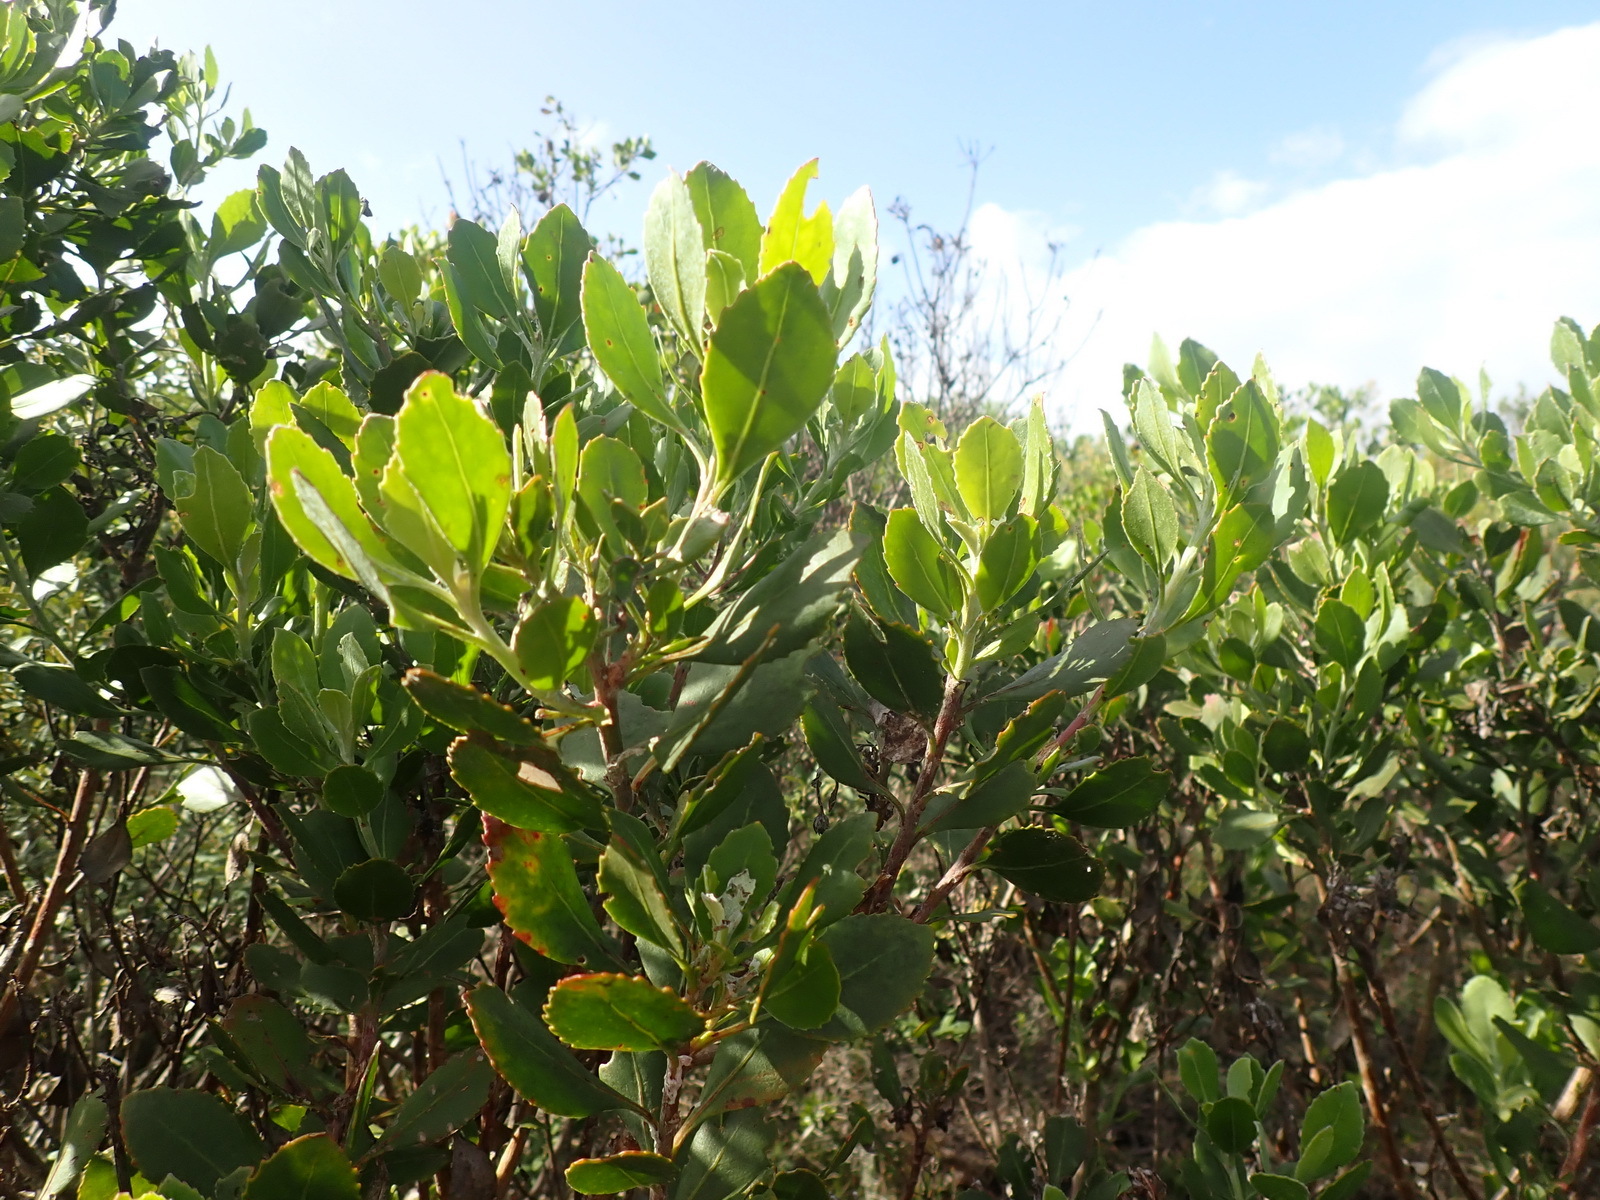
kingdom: Plantae
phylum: Tracheophyta
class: Magnoliopsida
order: Asterales
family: Asteraceae
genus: Osteospermum
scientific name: Osteospermum moniliferum
